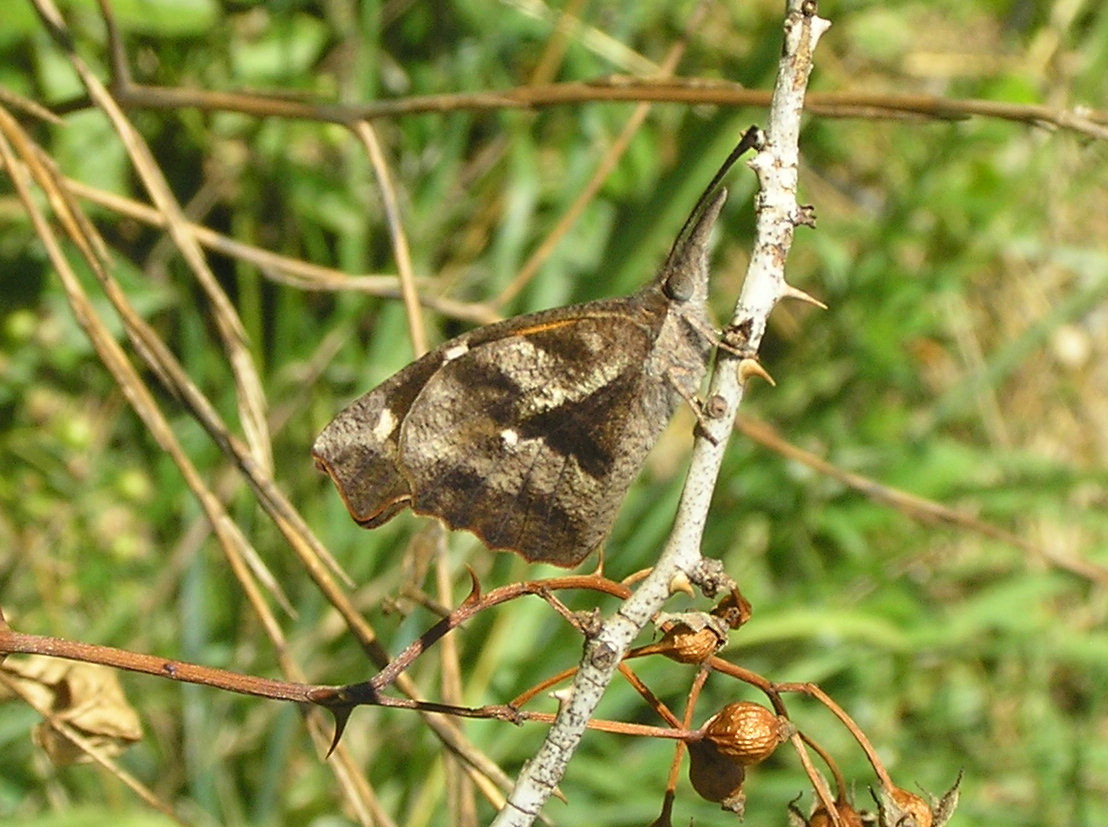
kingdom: Animalia
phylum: Arthropoda
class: Insecta
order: Lepidoptera
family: Nymphalidae
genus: Libytheana
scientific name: Libytheana carinenta
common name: American snout
